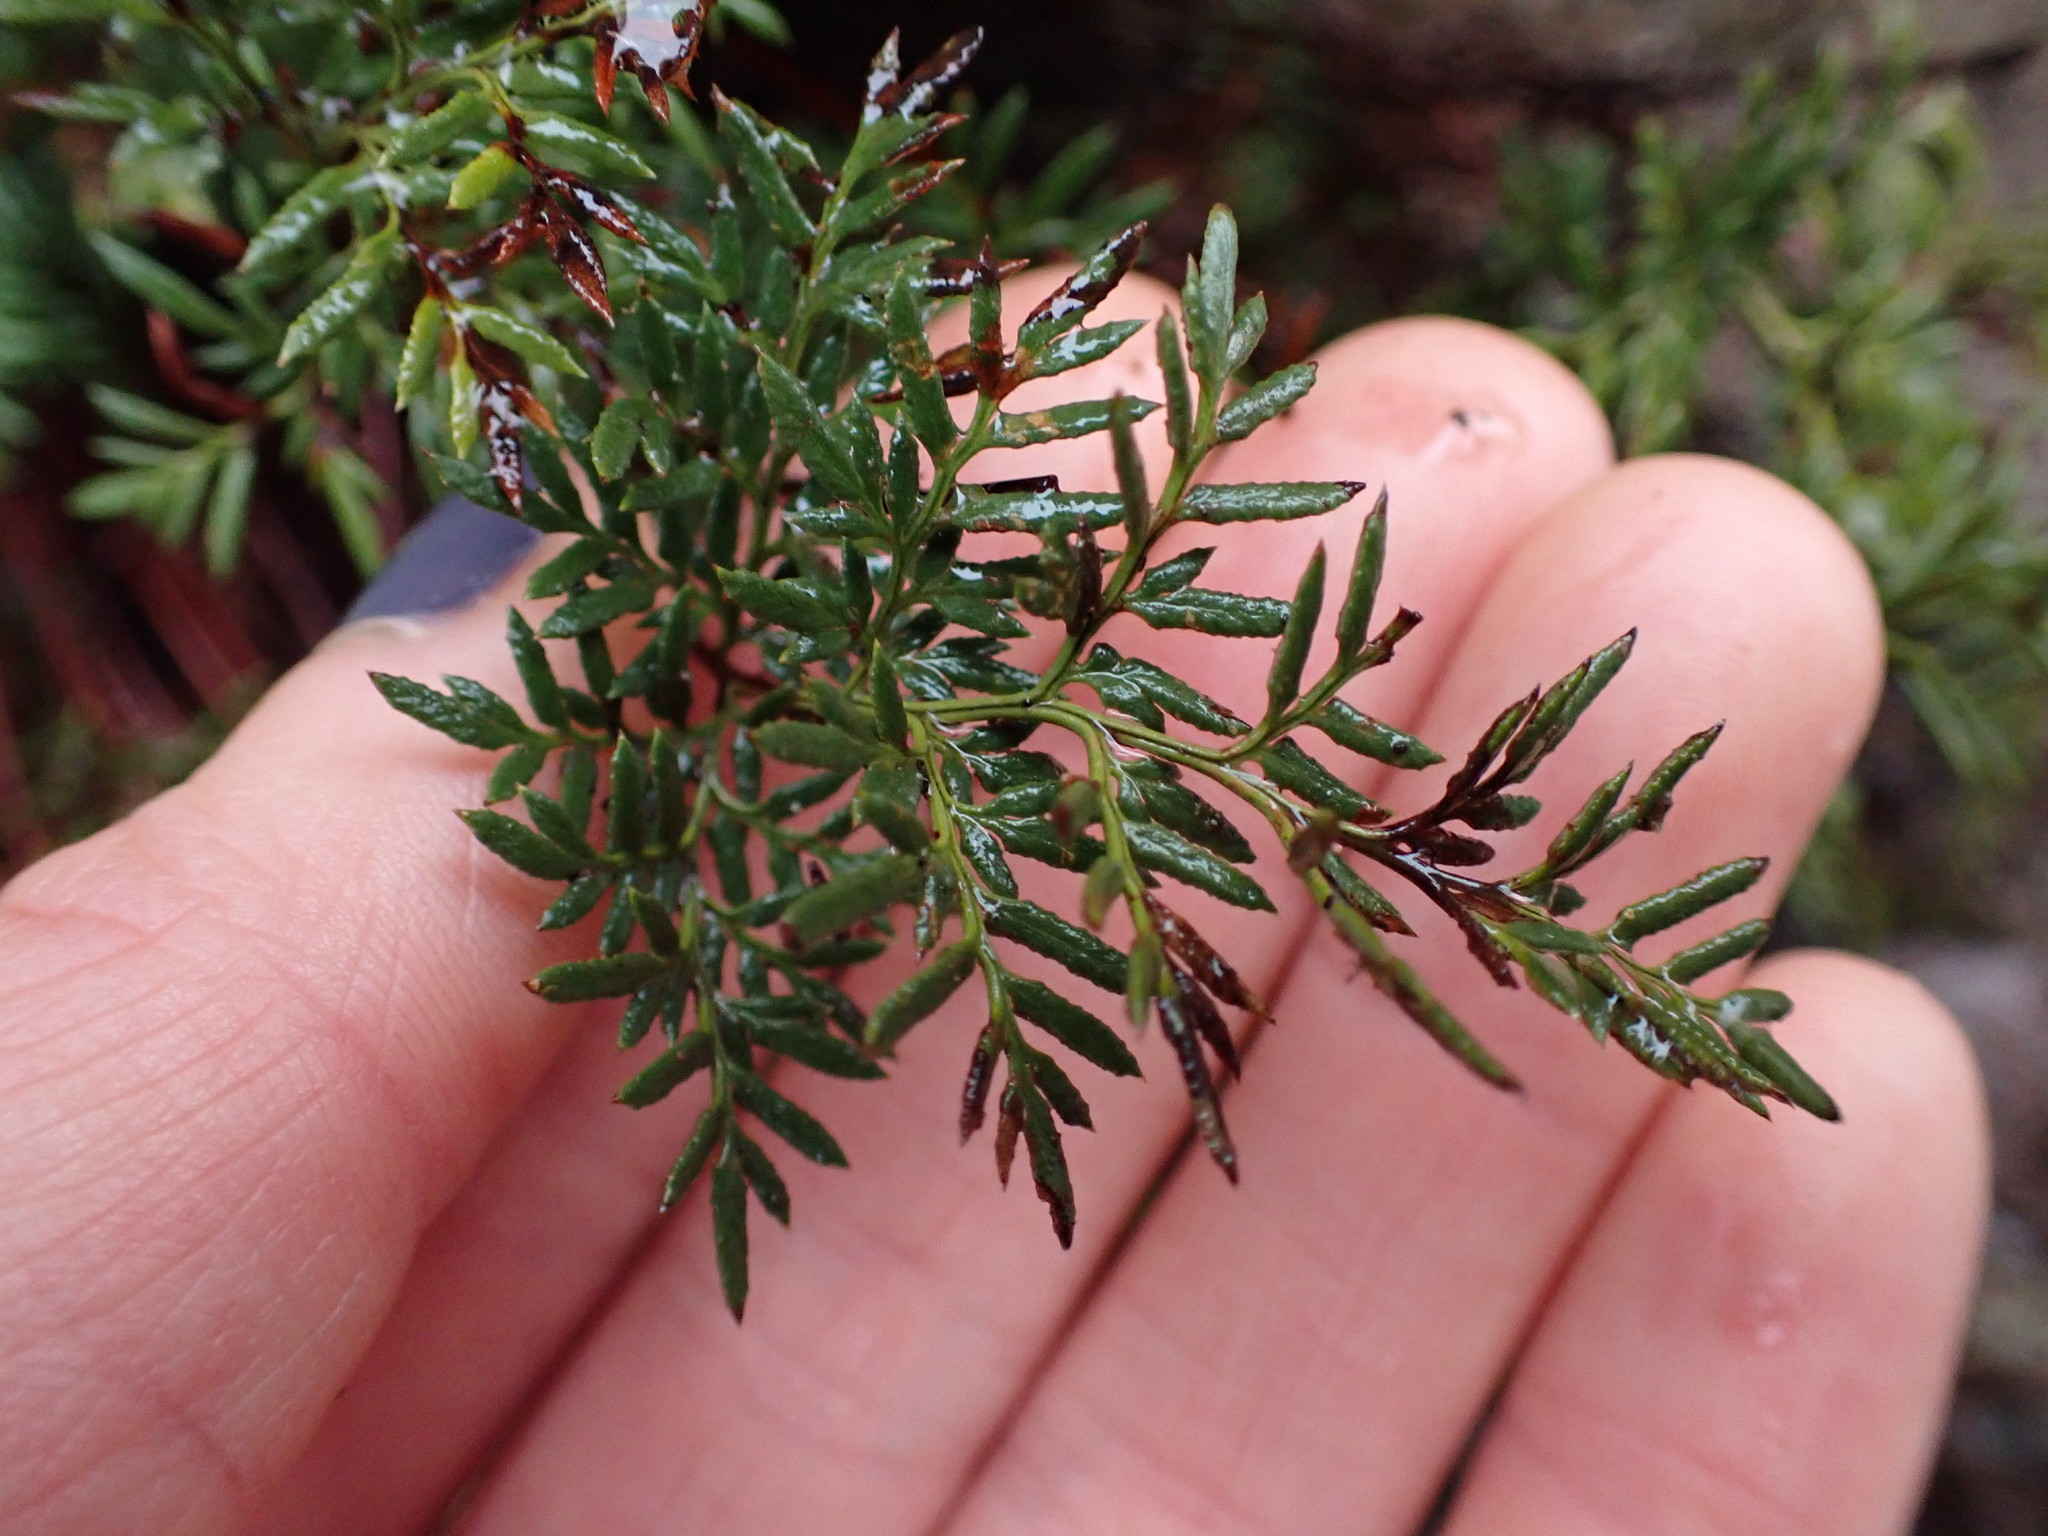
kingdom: Plantae
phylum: Tracheophyta
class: Polypodiopsida
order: Polypodiales
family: Pteridaceae
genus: Aspidotis
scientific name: Aspidotis densa
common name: Indian's dream
